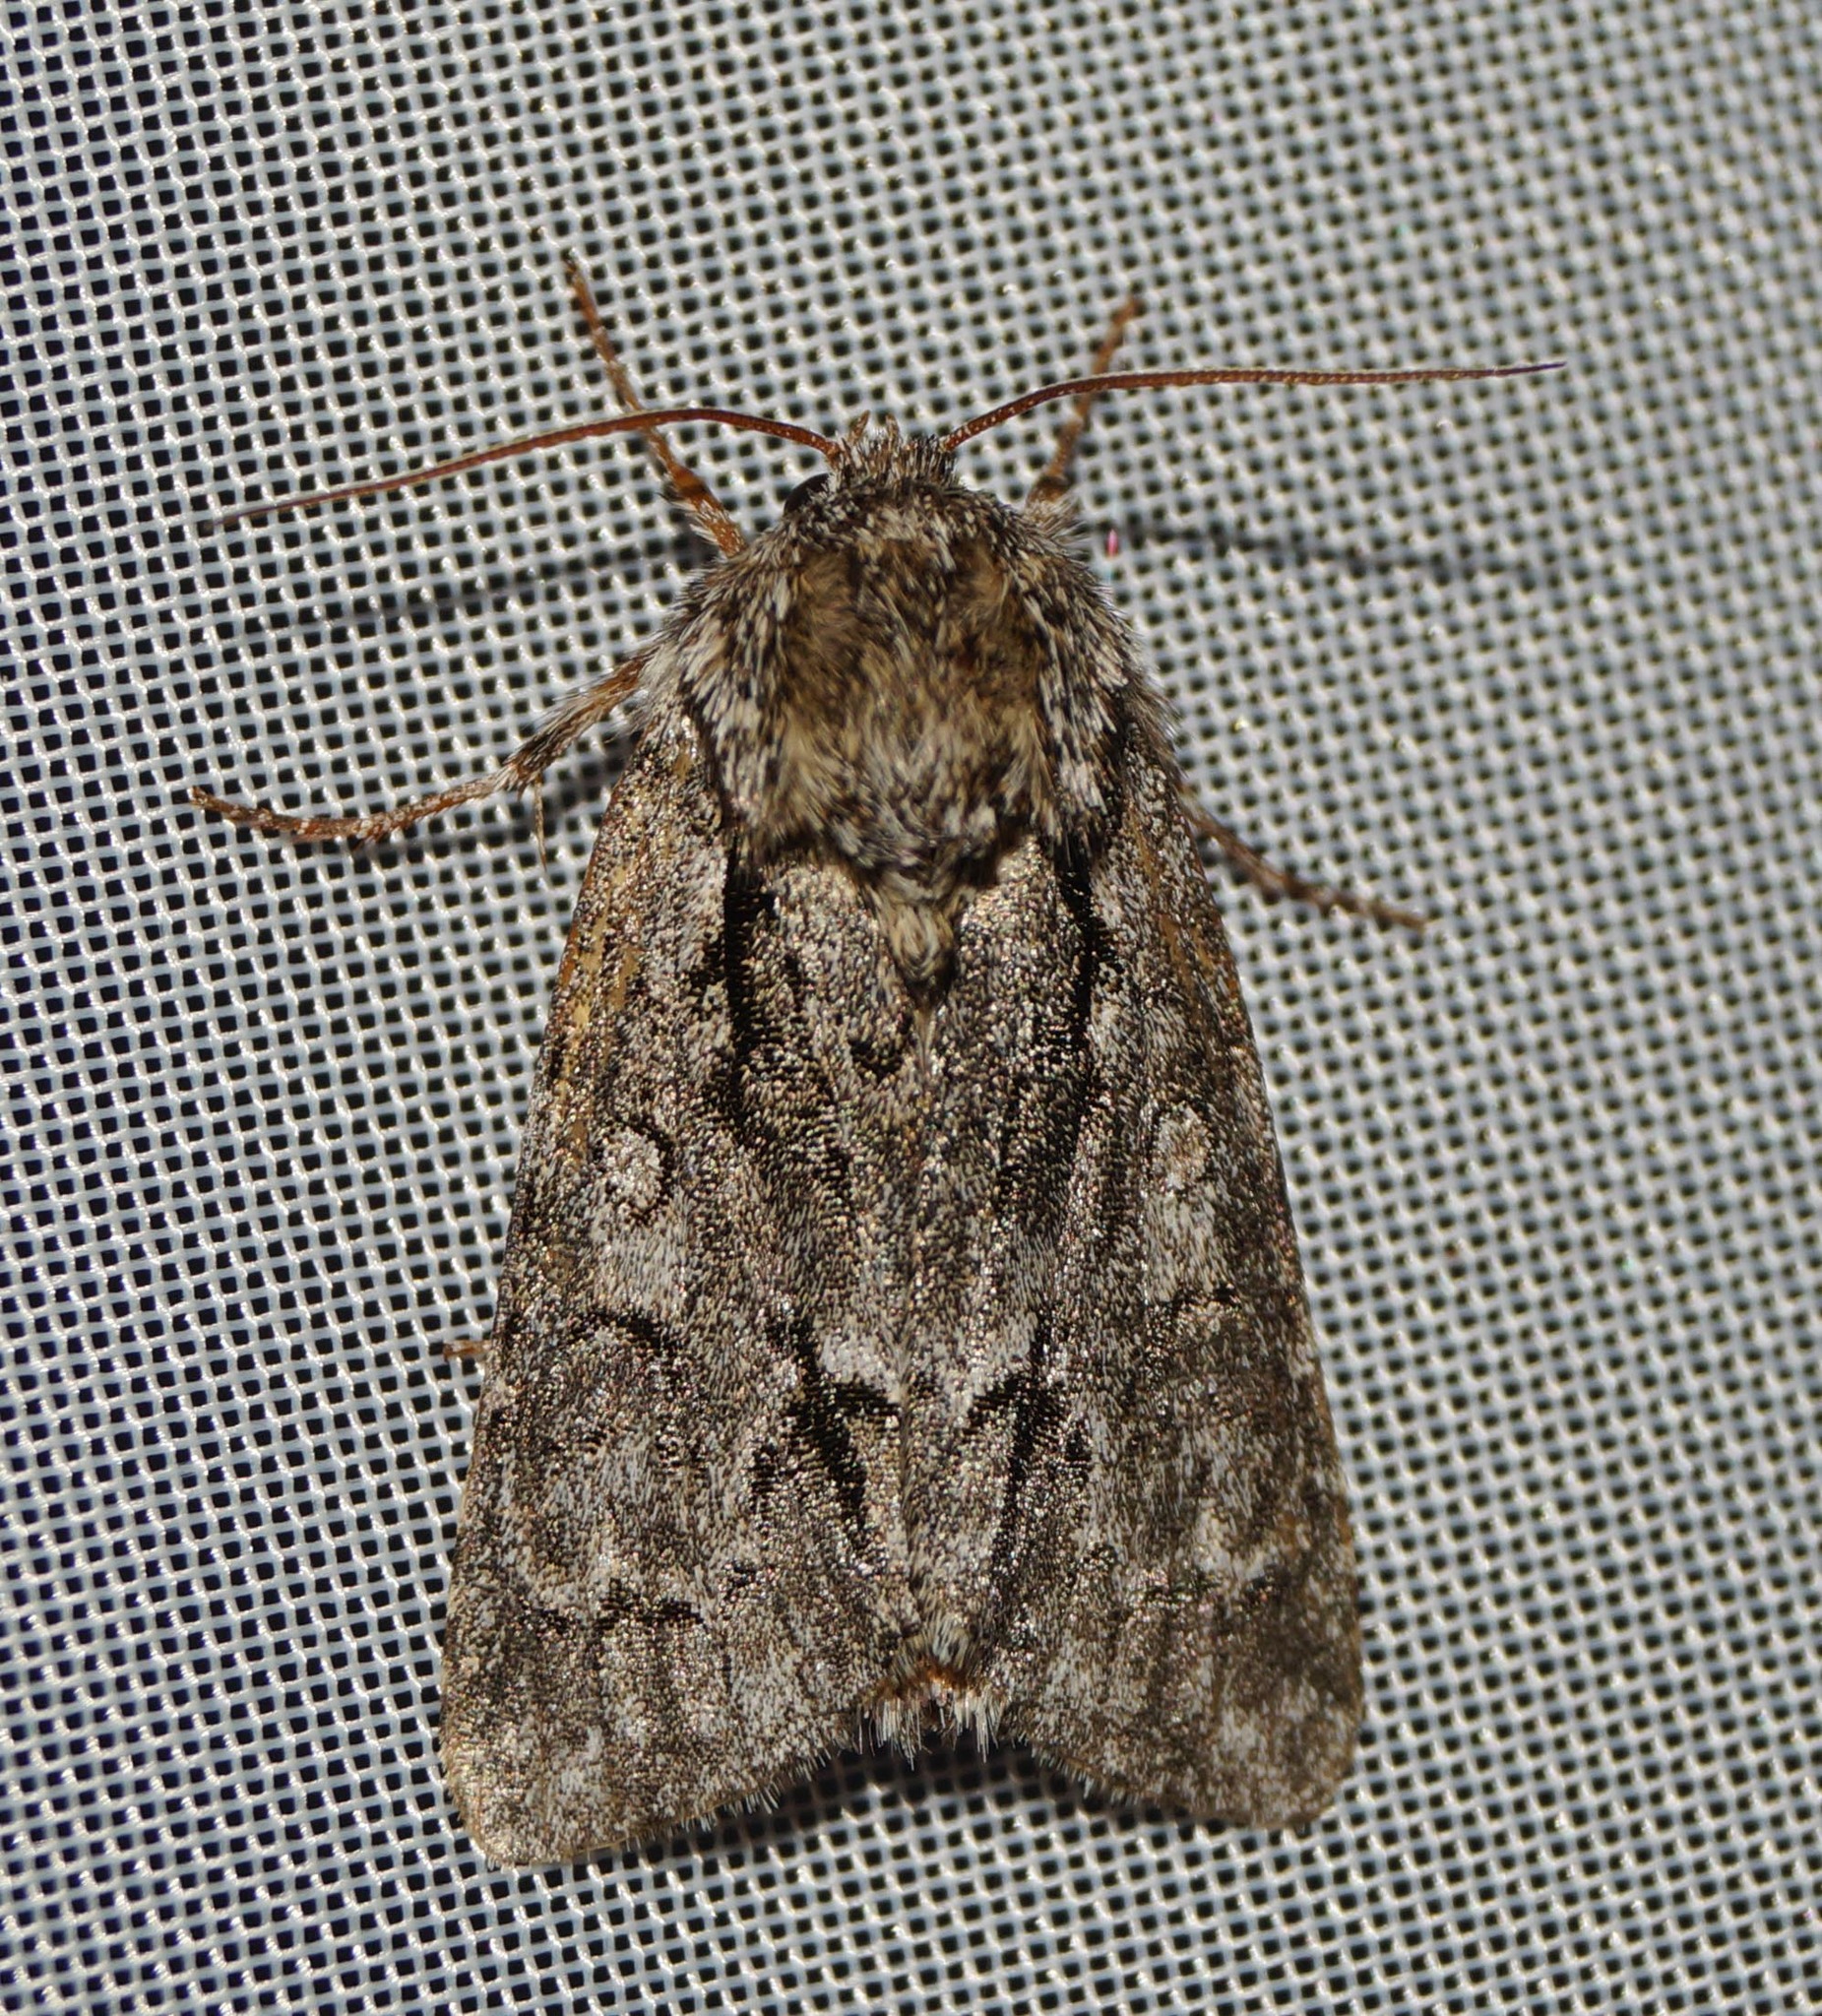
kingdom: Animalia
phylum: Arthropoda
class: Insecta
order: Lepidoptera
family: Noctuidae
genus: Acronicta
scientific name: Acronicta auricoma
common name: Scarce dagger
